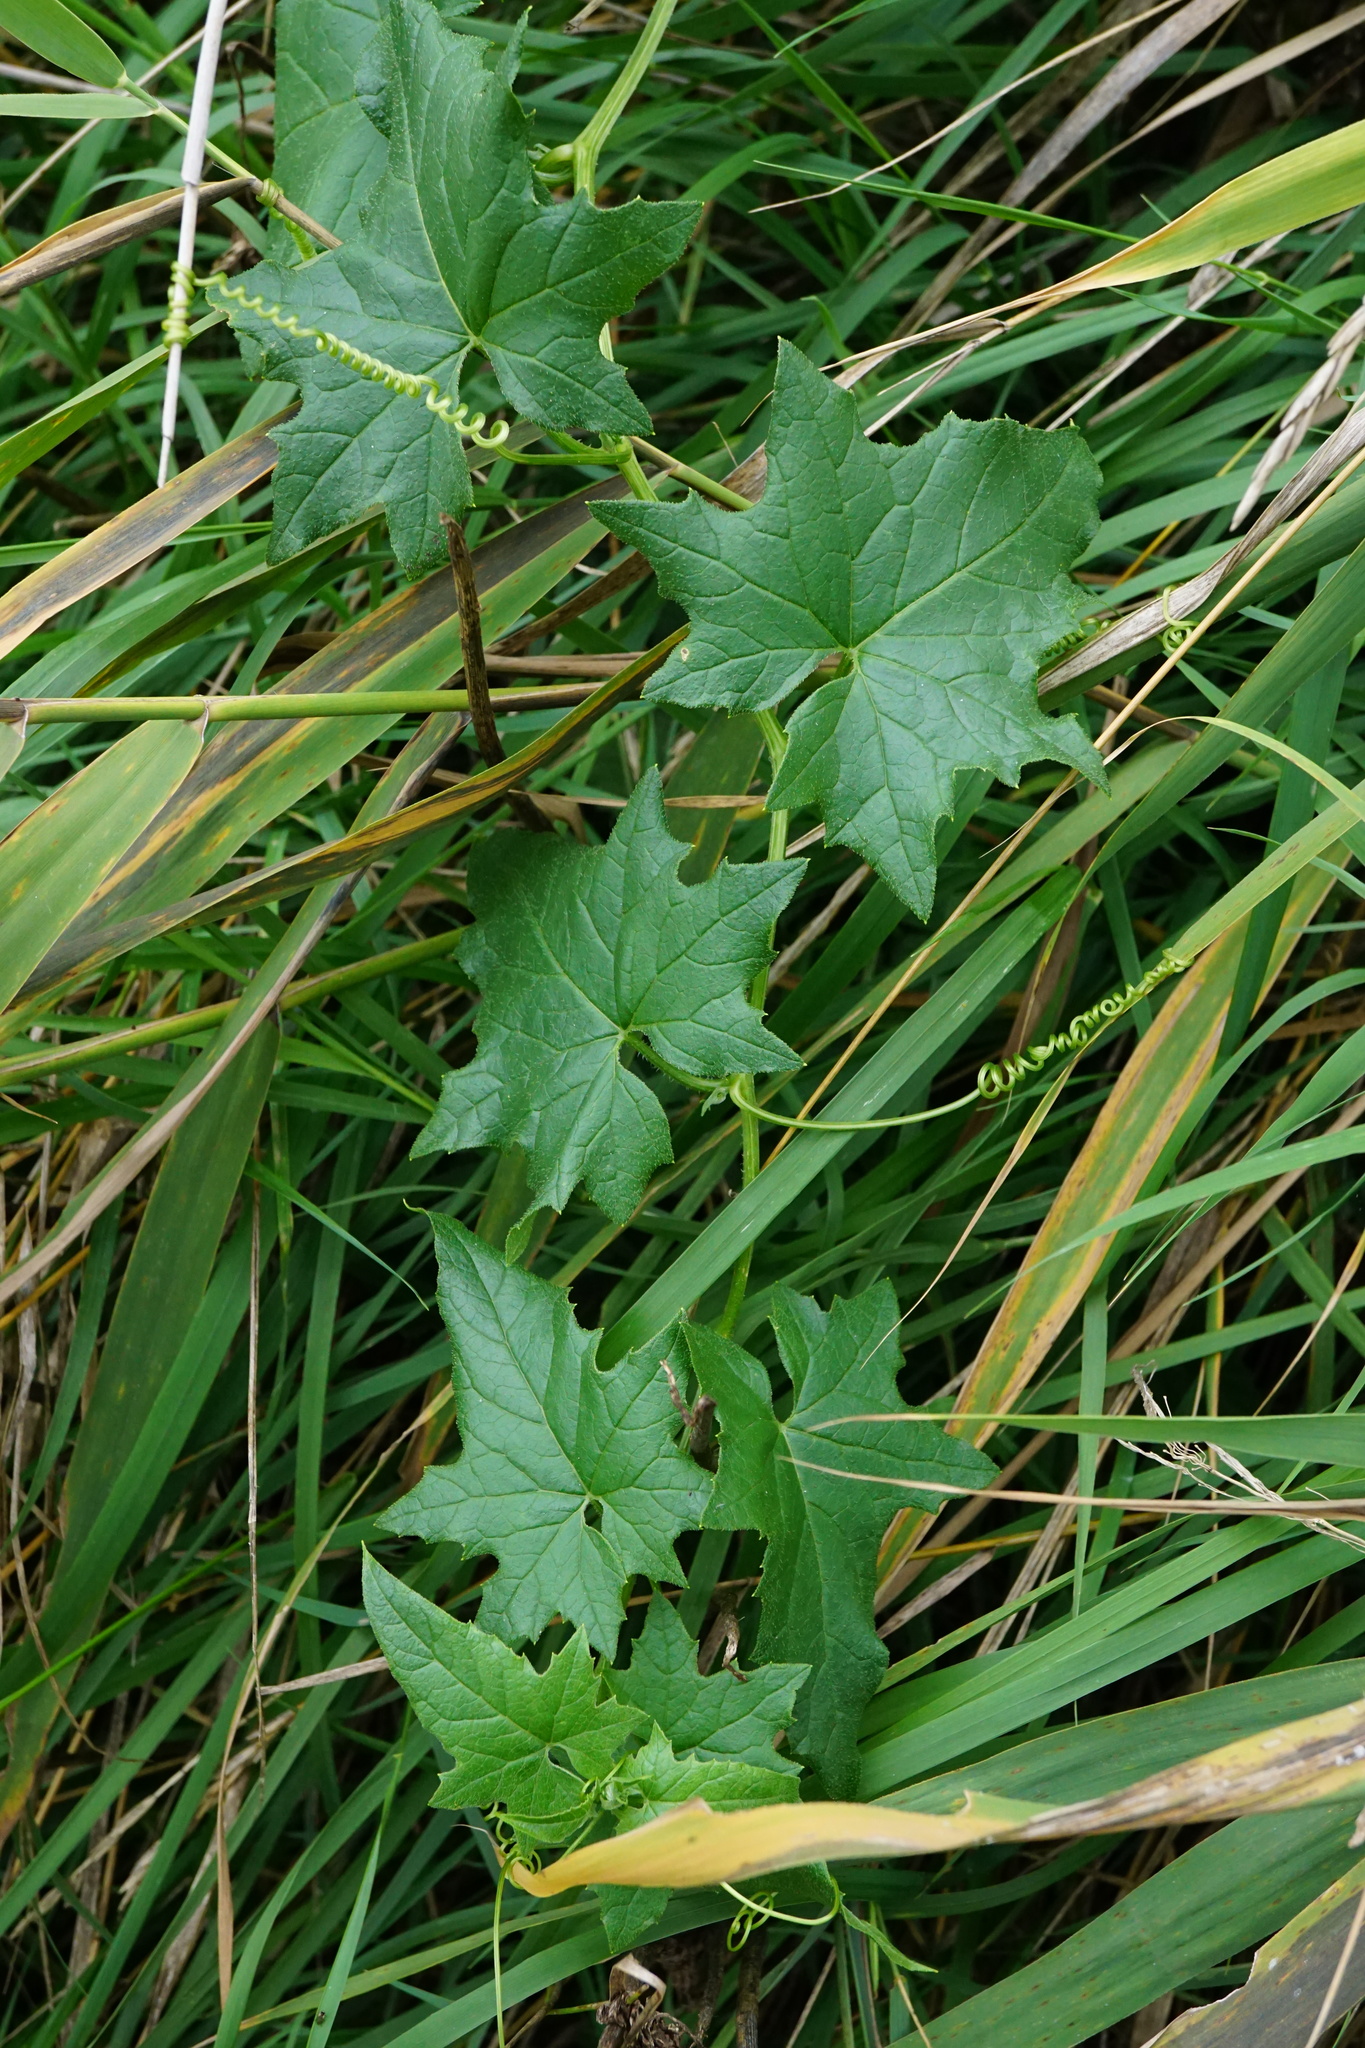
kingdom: Plantae
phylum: Tracheophyta
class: Magnoliopsida
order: Cucurbitales
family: Cucurbitaceae
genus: Bryonia
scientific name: Bryonia alba
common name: White bryony
